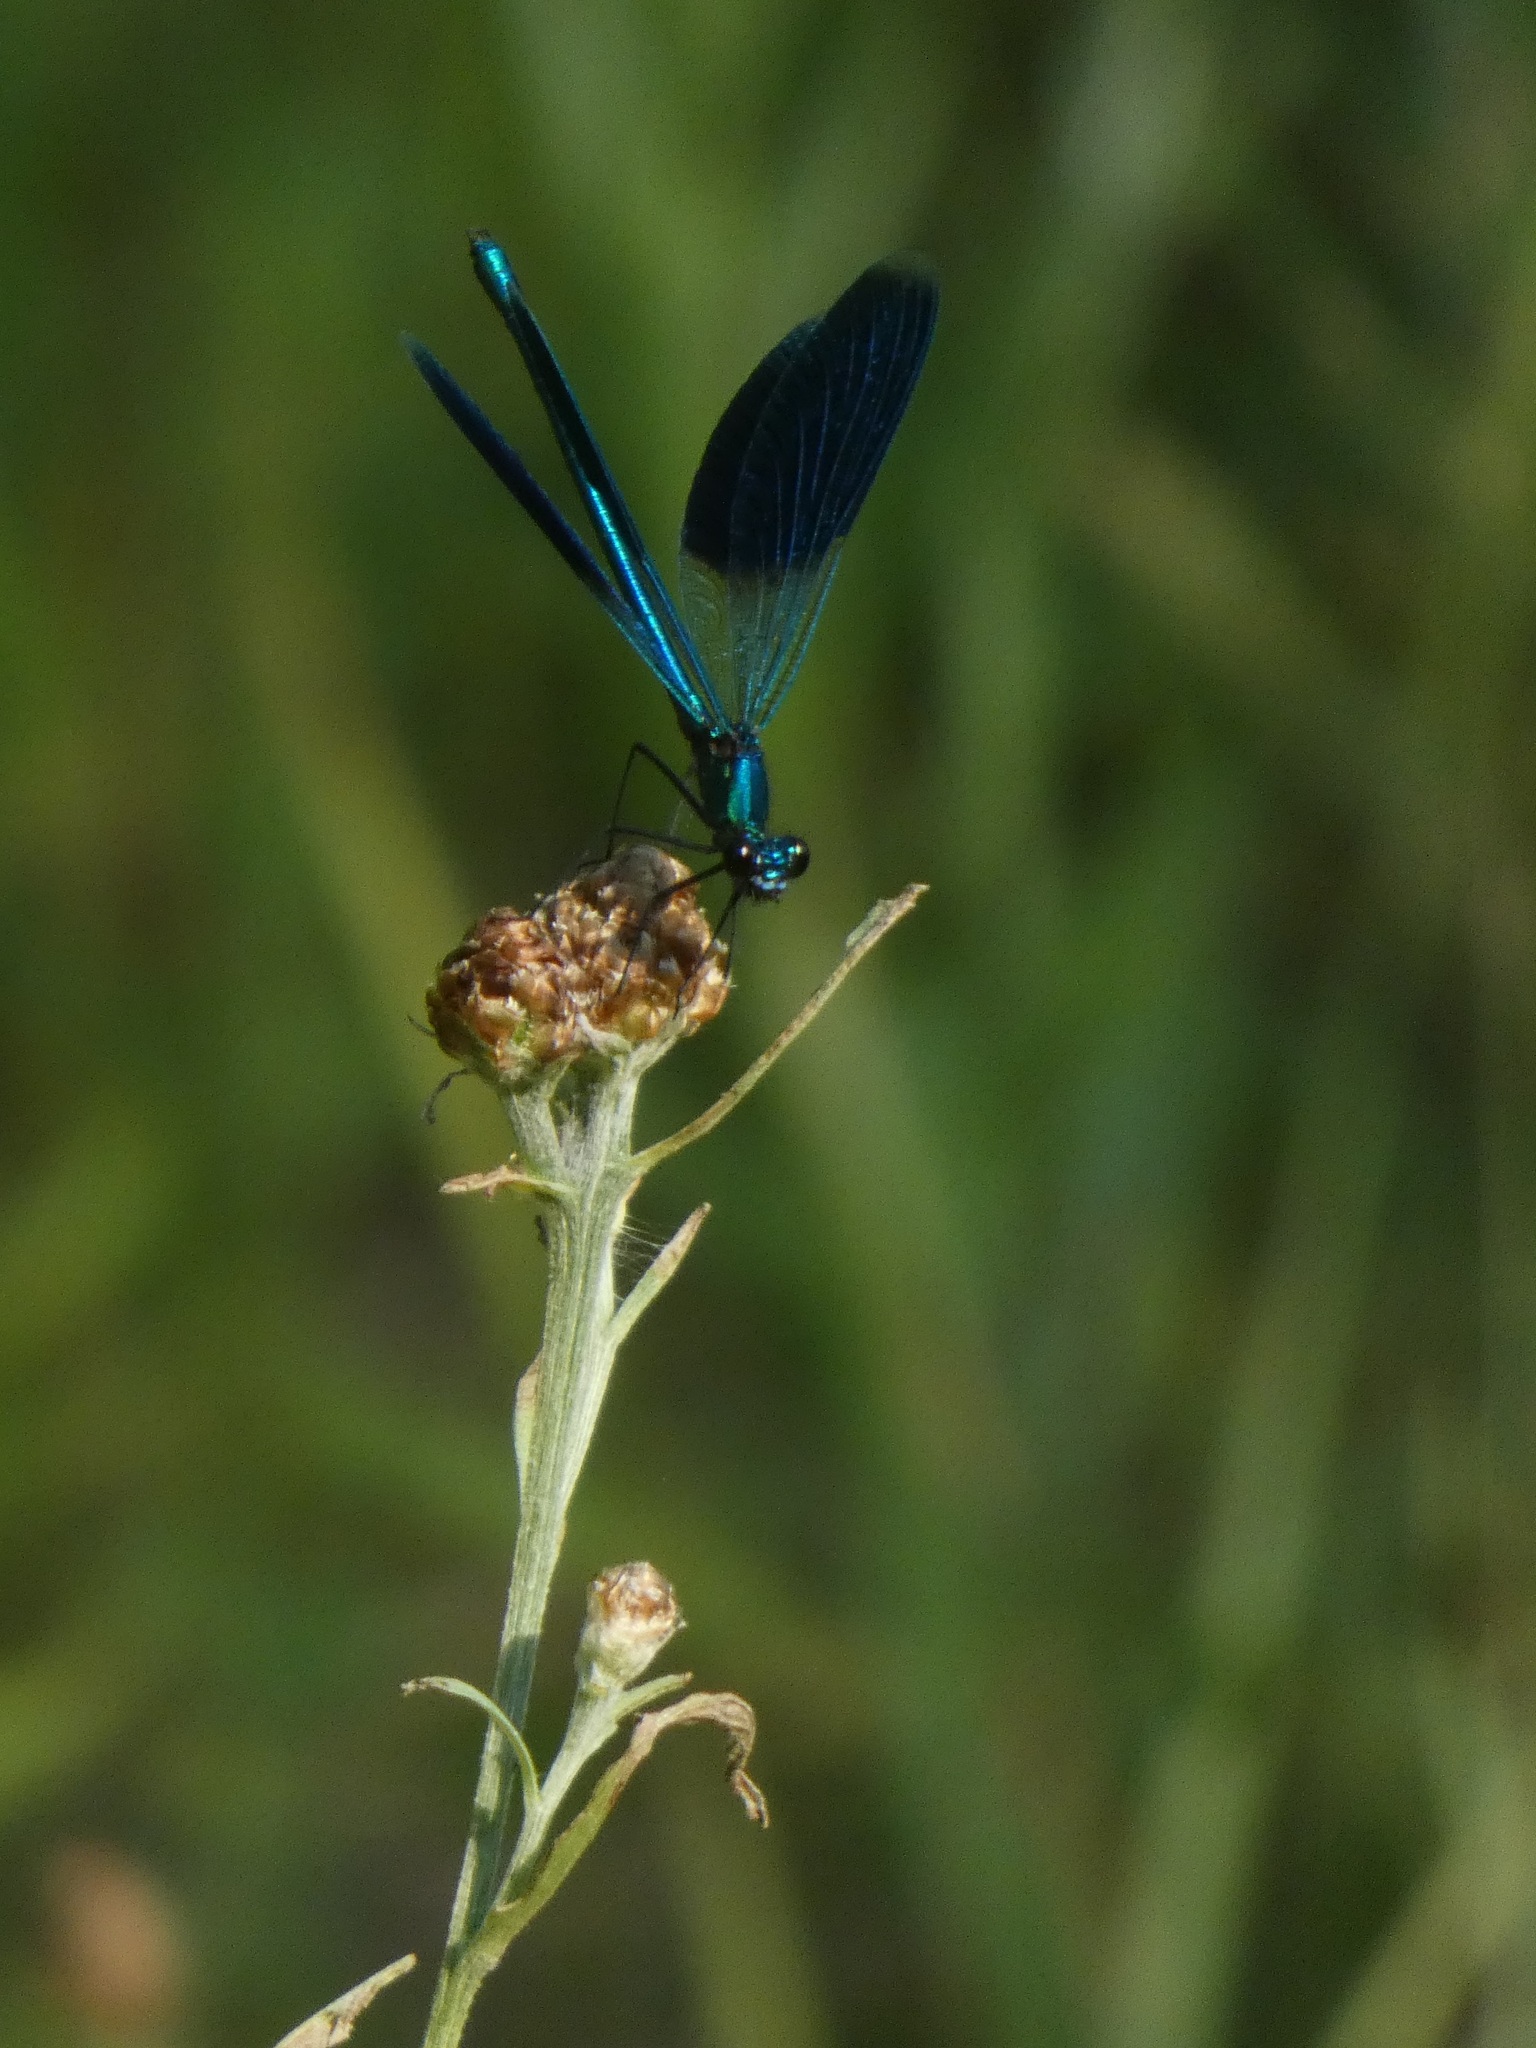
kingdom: Animalia
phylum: Arthropoda
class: Insecta
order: Odonata
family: Calopterygidae
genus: Calopteryx
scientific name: Calopteryx splendens
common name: Banded demoiselle
